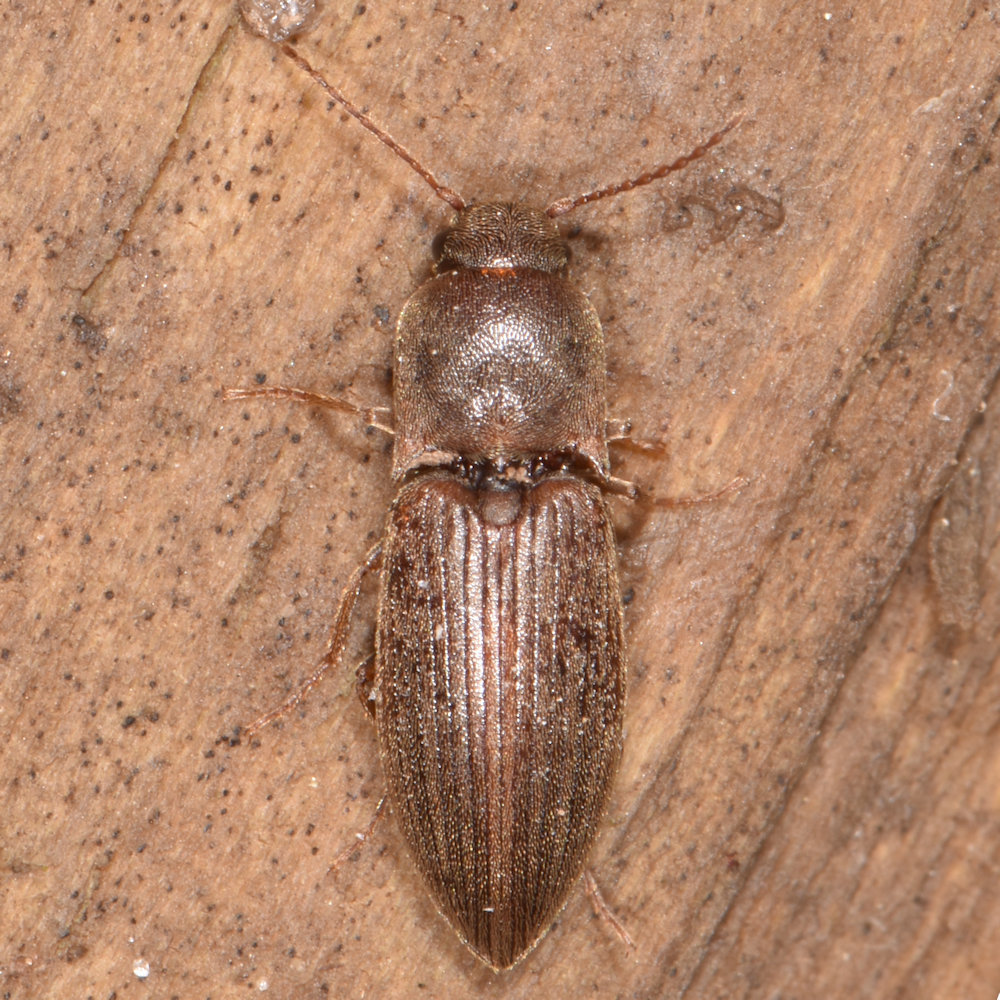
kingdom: Animalia
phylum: Arthropoda
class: Insecta
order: Coleoptera
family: Elateridae
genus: Agriotes
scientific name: Agriotes mancus
